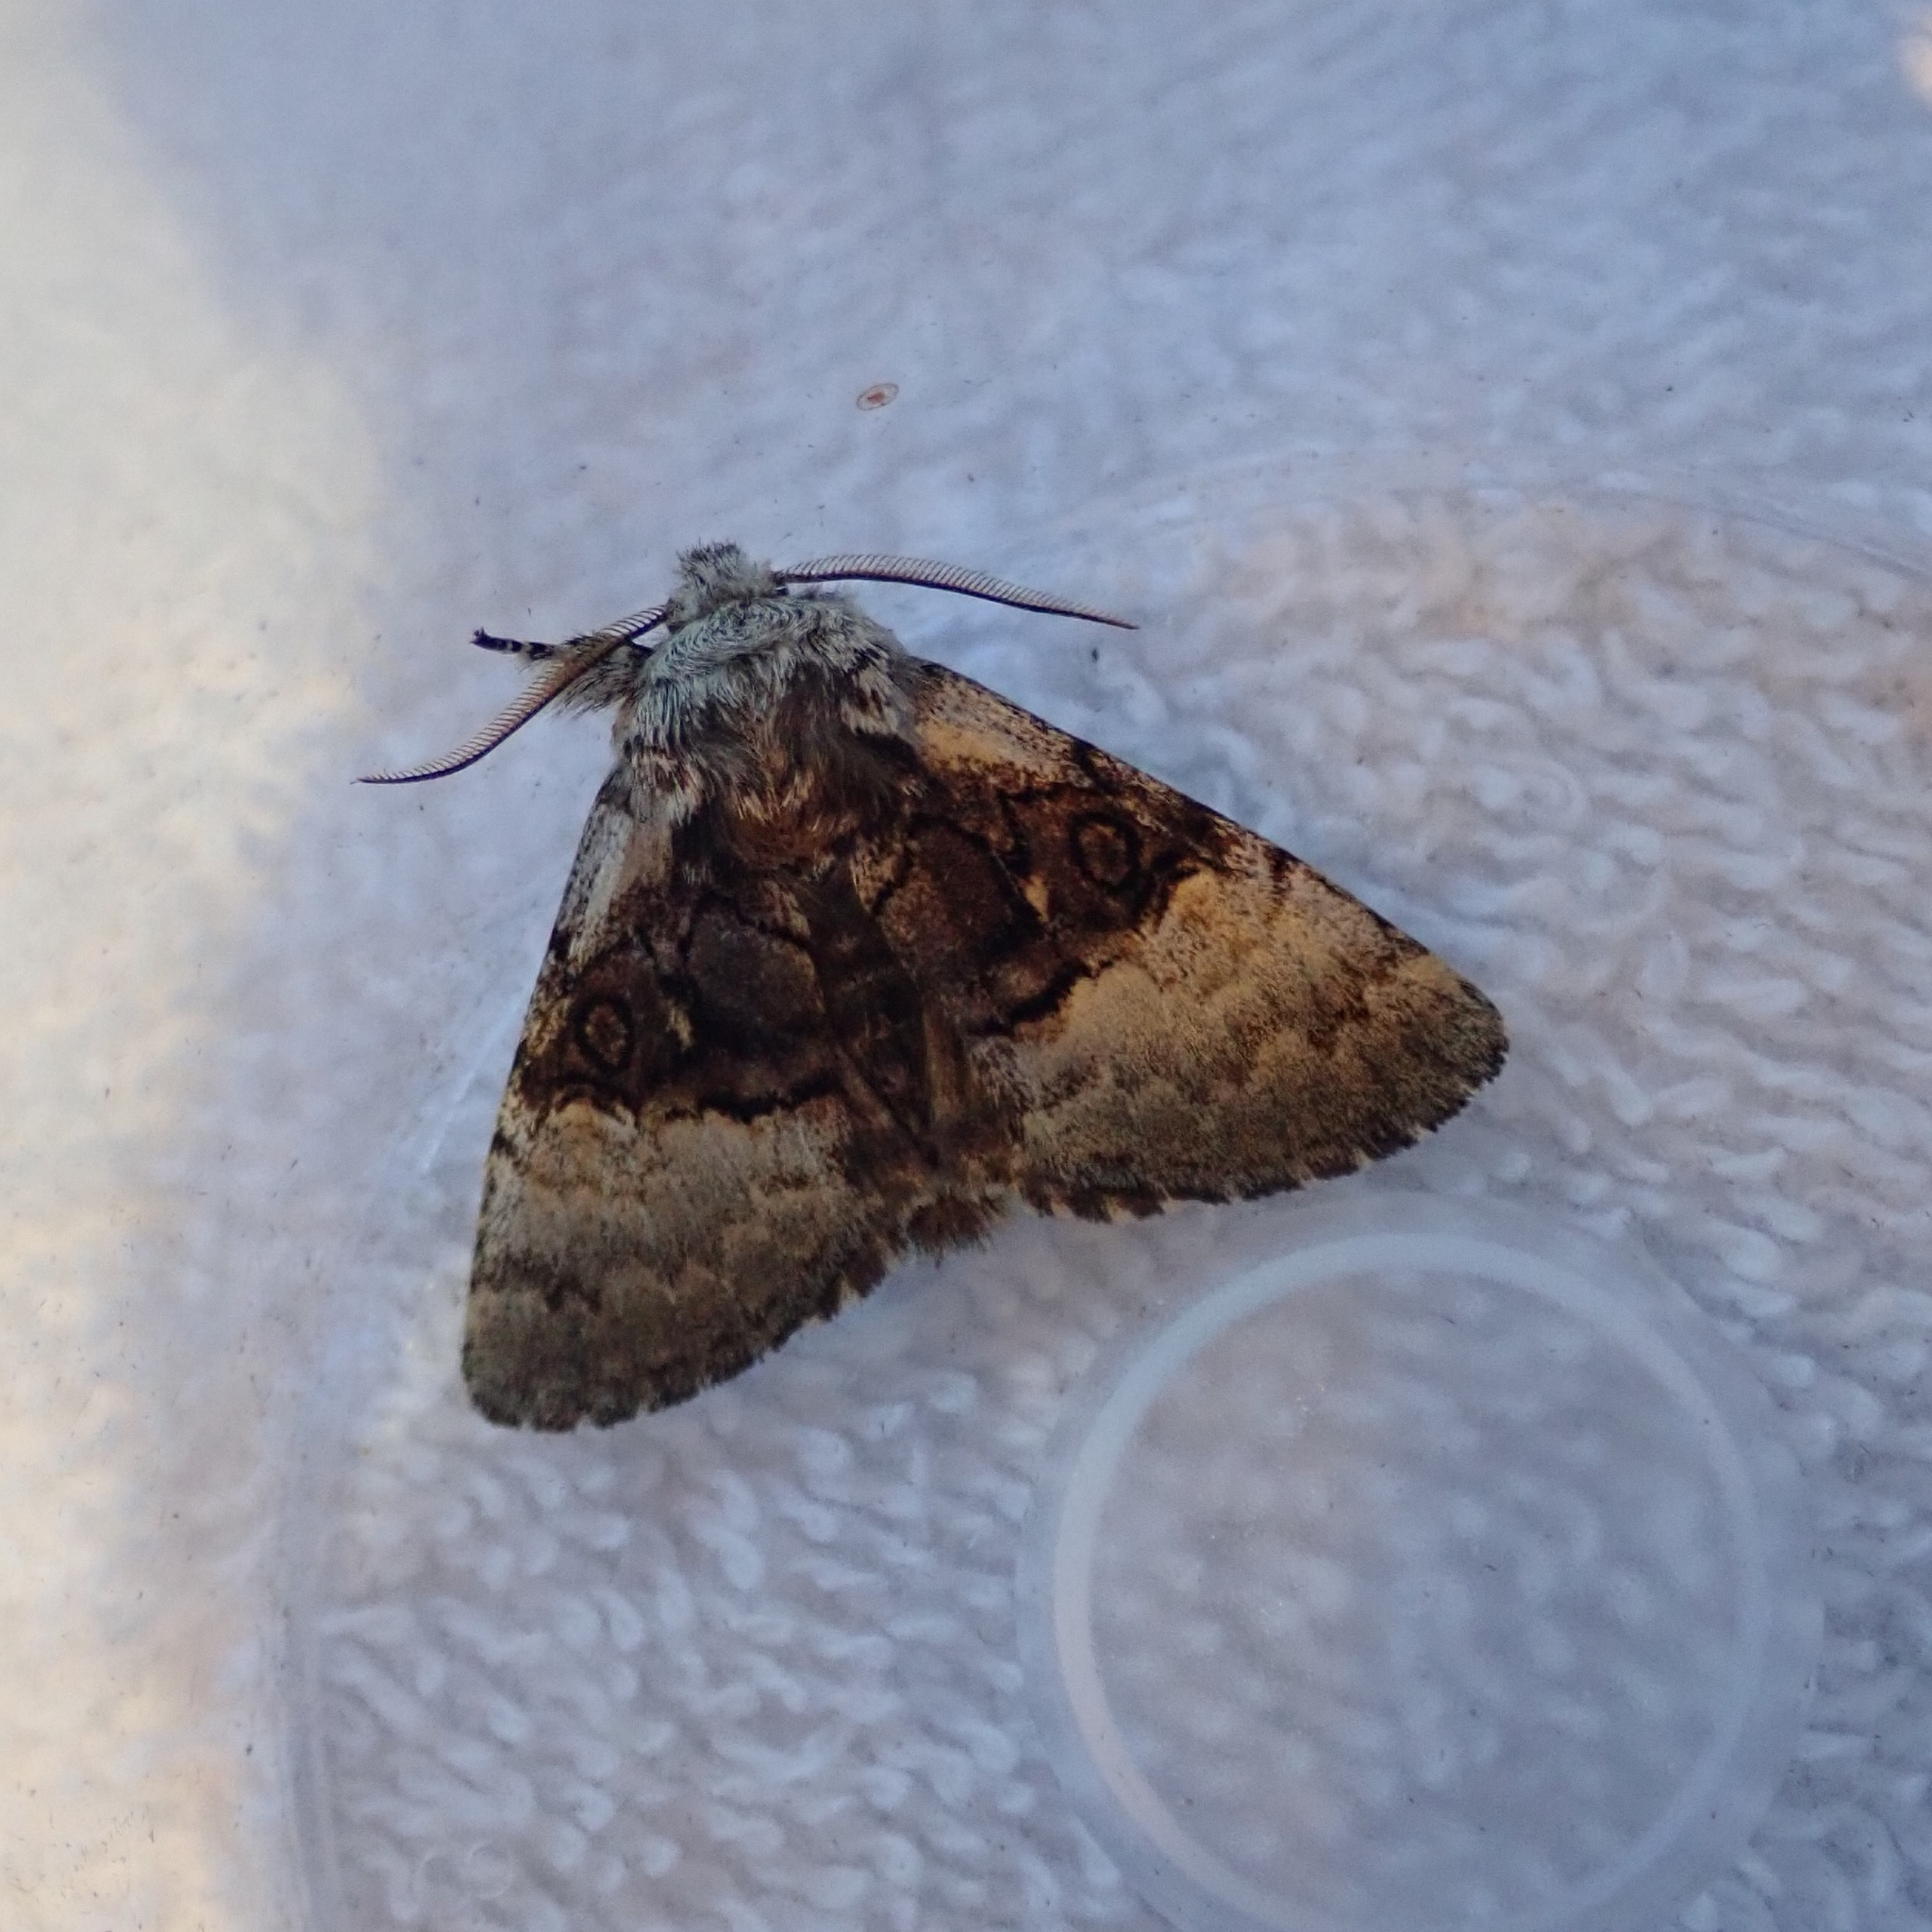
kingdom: Animalia
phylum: Arthropoda
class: Insecta
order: Lepidoptera
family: Noctuidae
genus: Colocasia
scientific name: Colocasia coryli
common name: Nut-tree tussock
